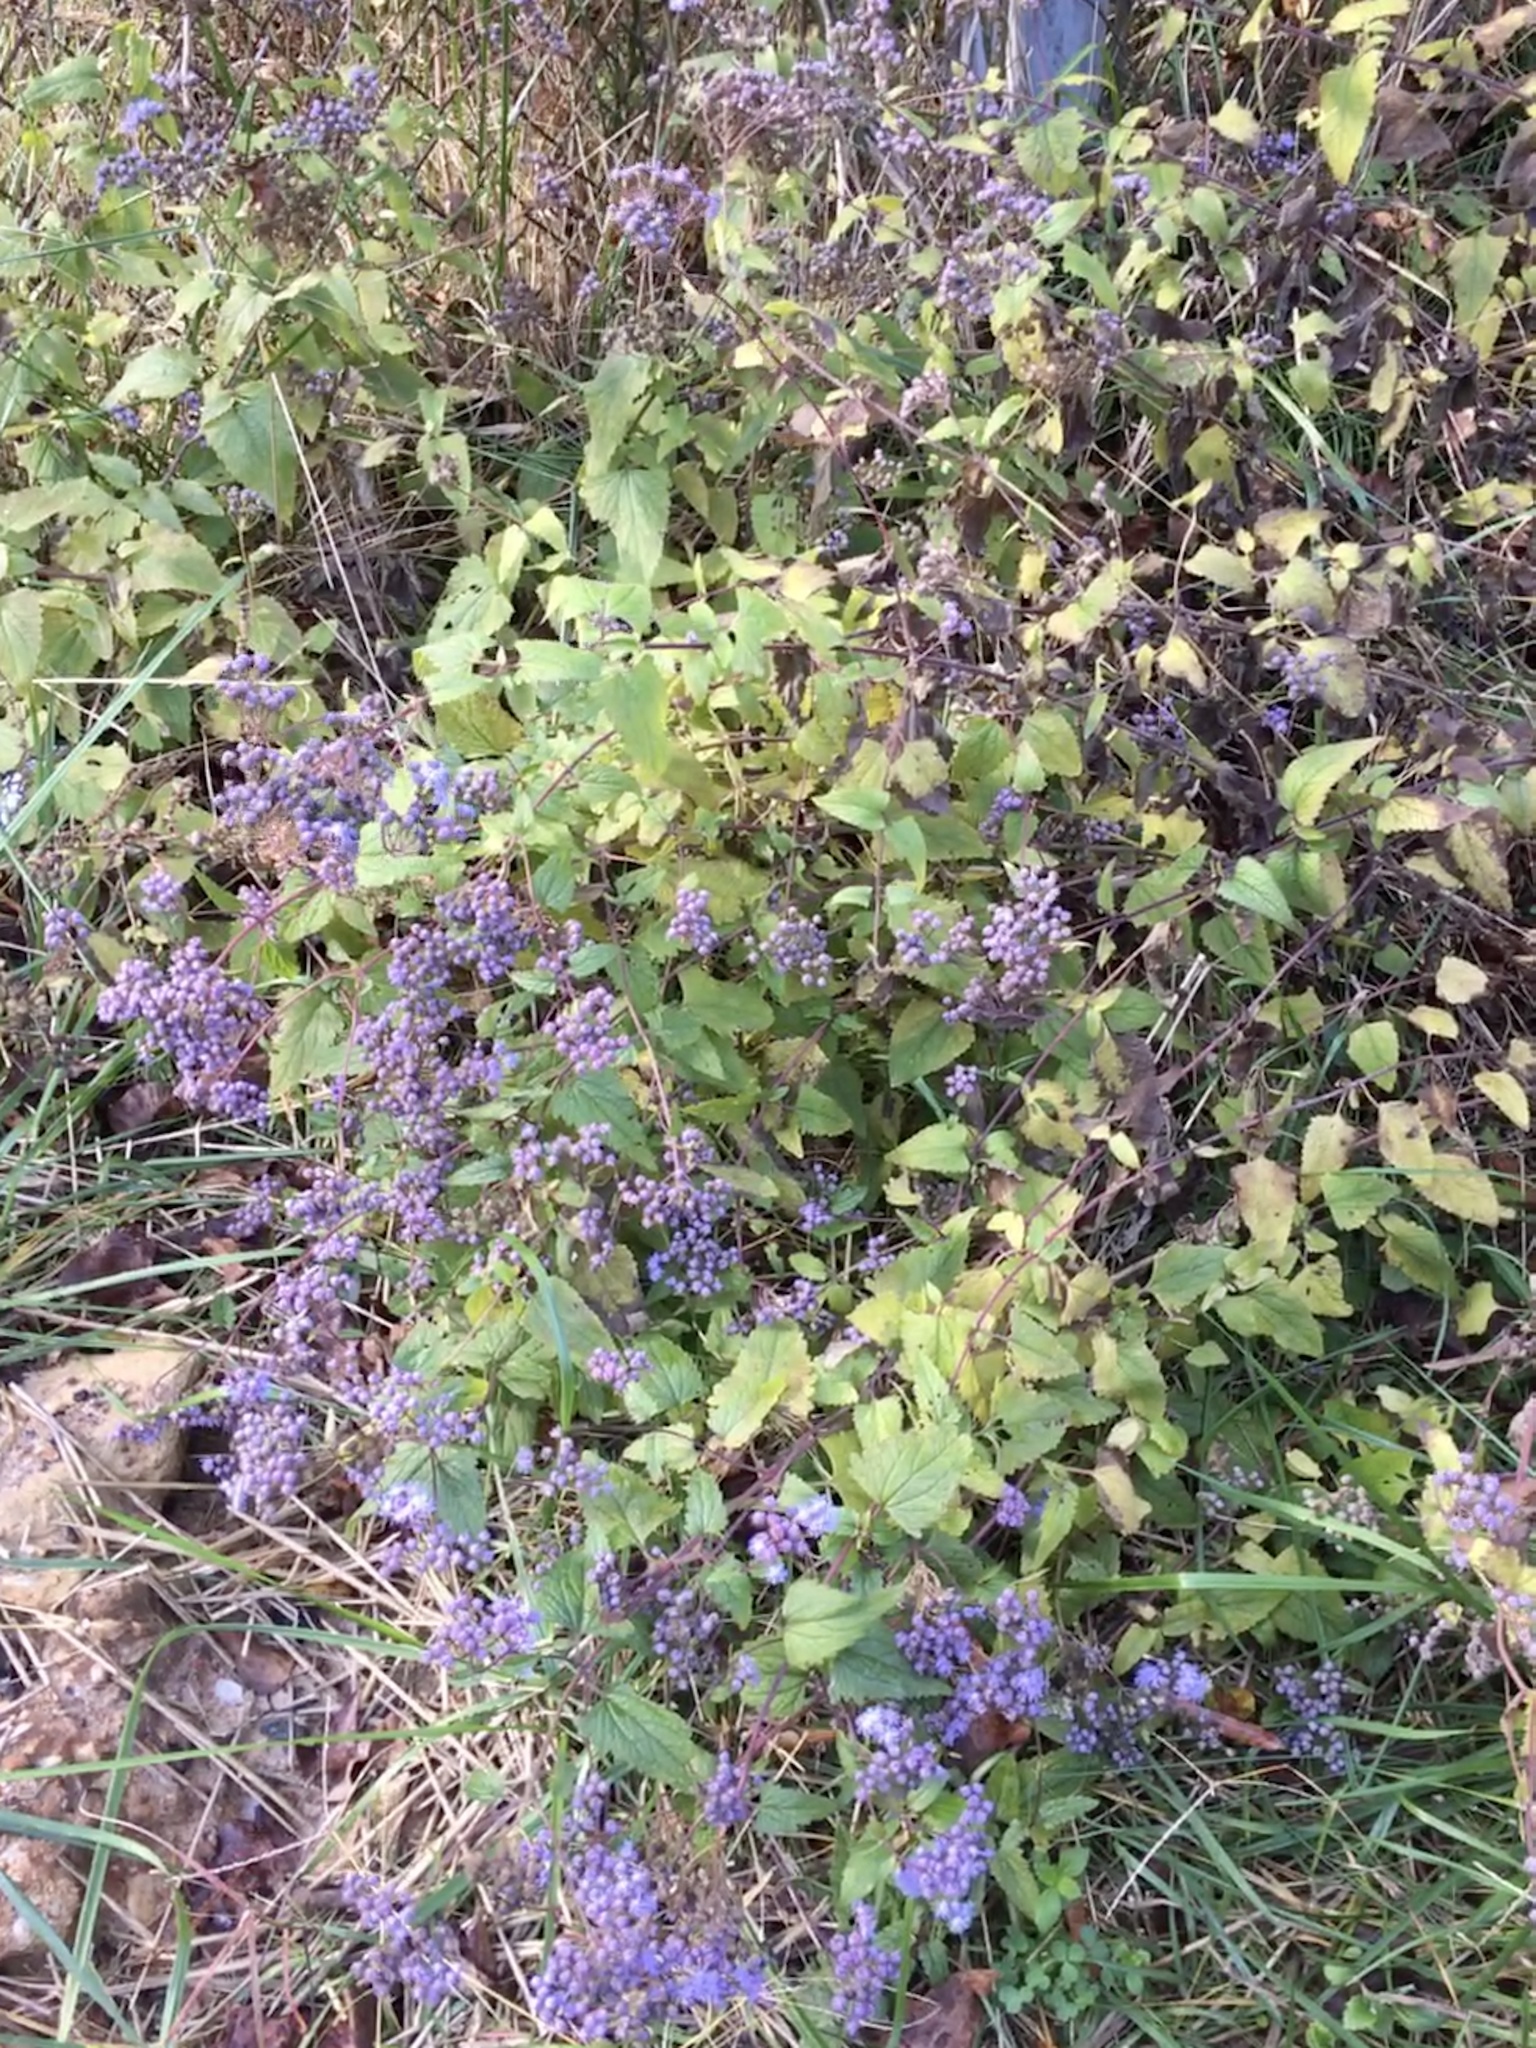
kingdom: Plantae
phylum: Tracheophyta
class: Magnoliopsida
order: Asterales
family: Asteraceae
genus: Conoclinium
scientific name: Conoclinium coelestinum
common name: Blue mistflower
